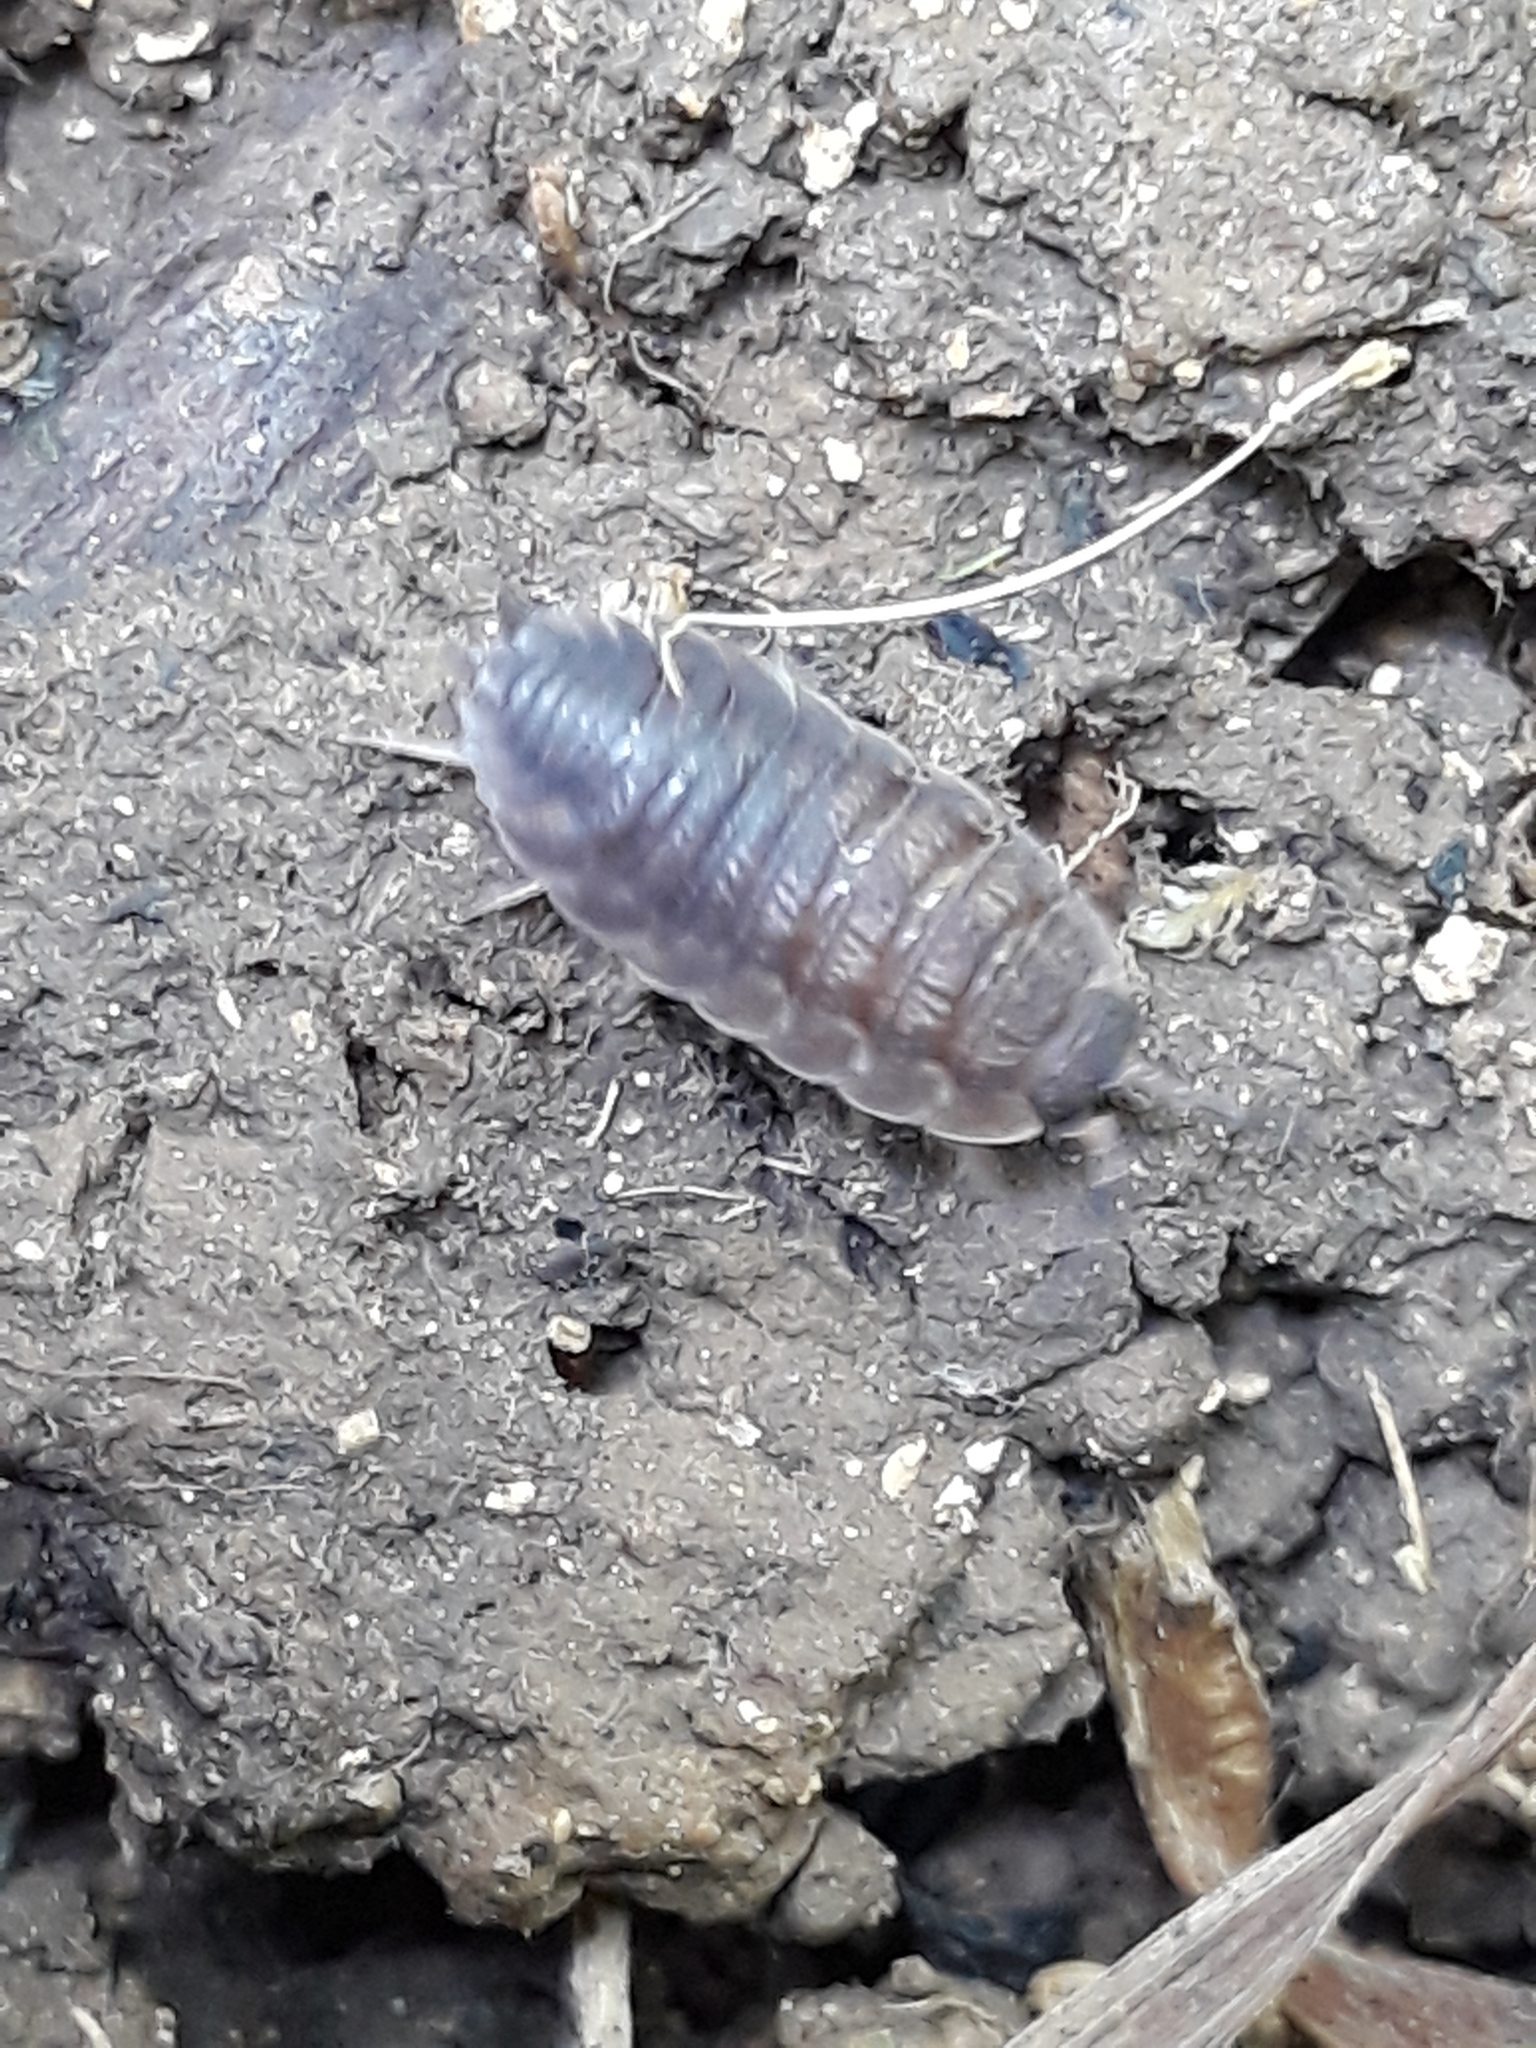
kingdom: Animalia
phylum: Arthropoda
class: Malacostraca
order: Isopoda
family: Porcellionidae
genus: Porcellio
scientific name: Porcellio scaber
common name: Common rough woodlouse
